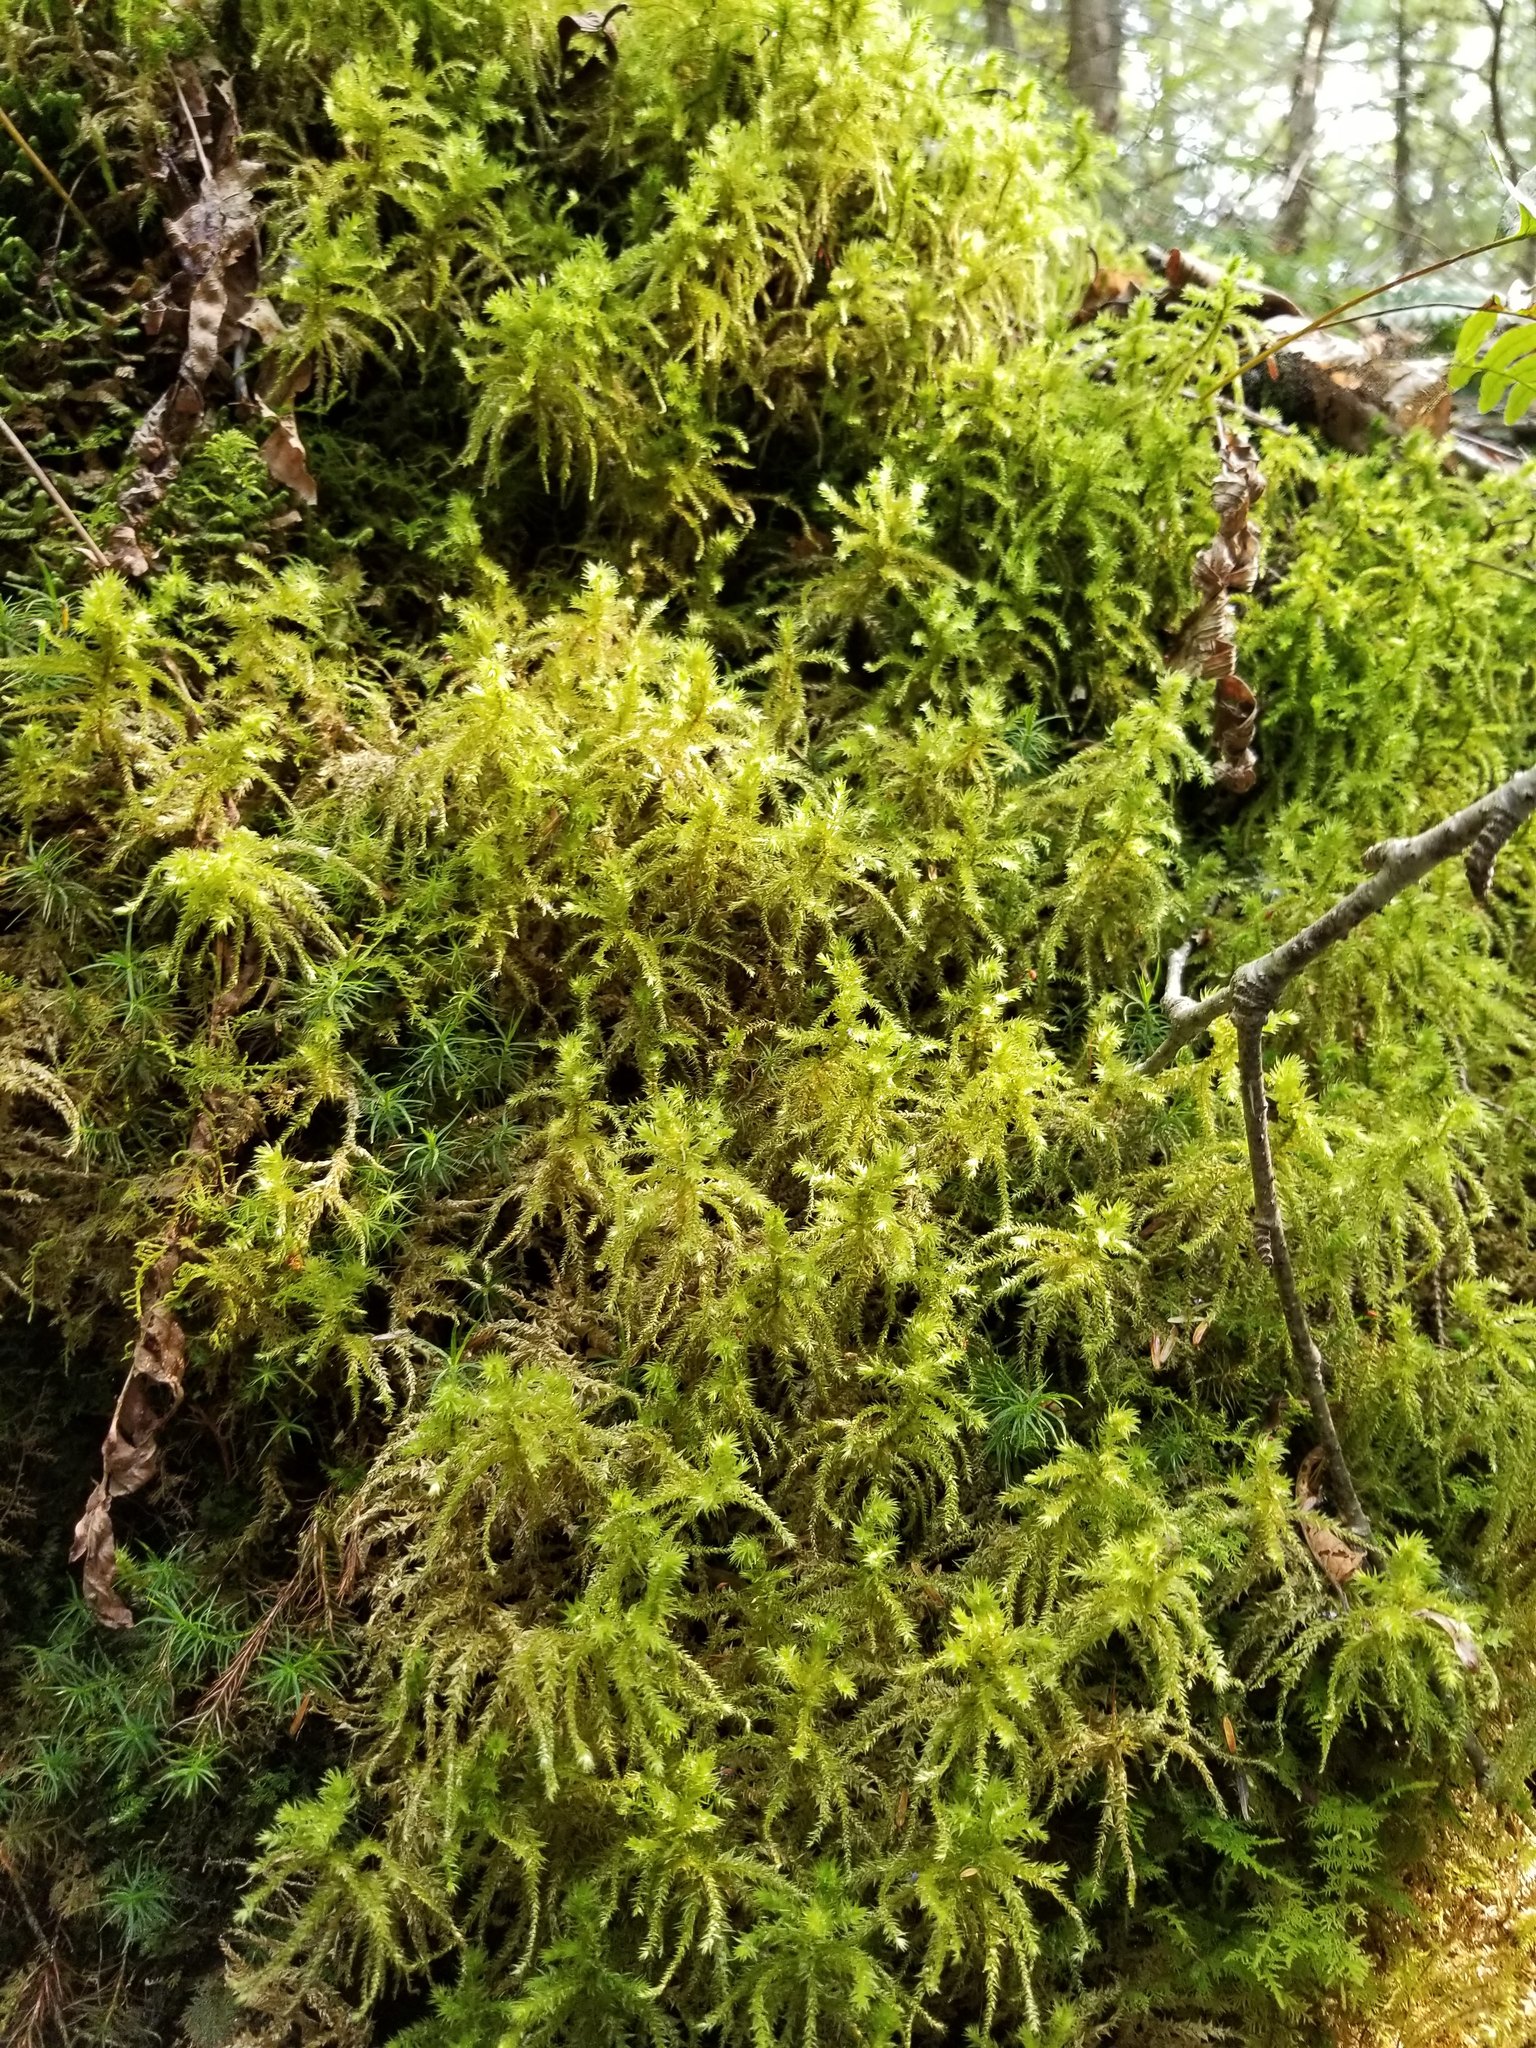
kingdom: Plantae
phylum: Bryophyta
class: Bryopsida
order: Hypnales
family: Hylocomiaceae
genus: Hylocomiadelphus
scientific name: Hylocomiadelphus triquetrus
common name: Rough goose neck moss
